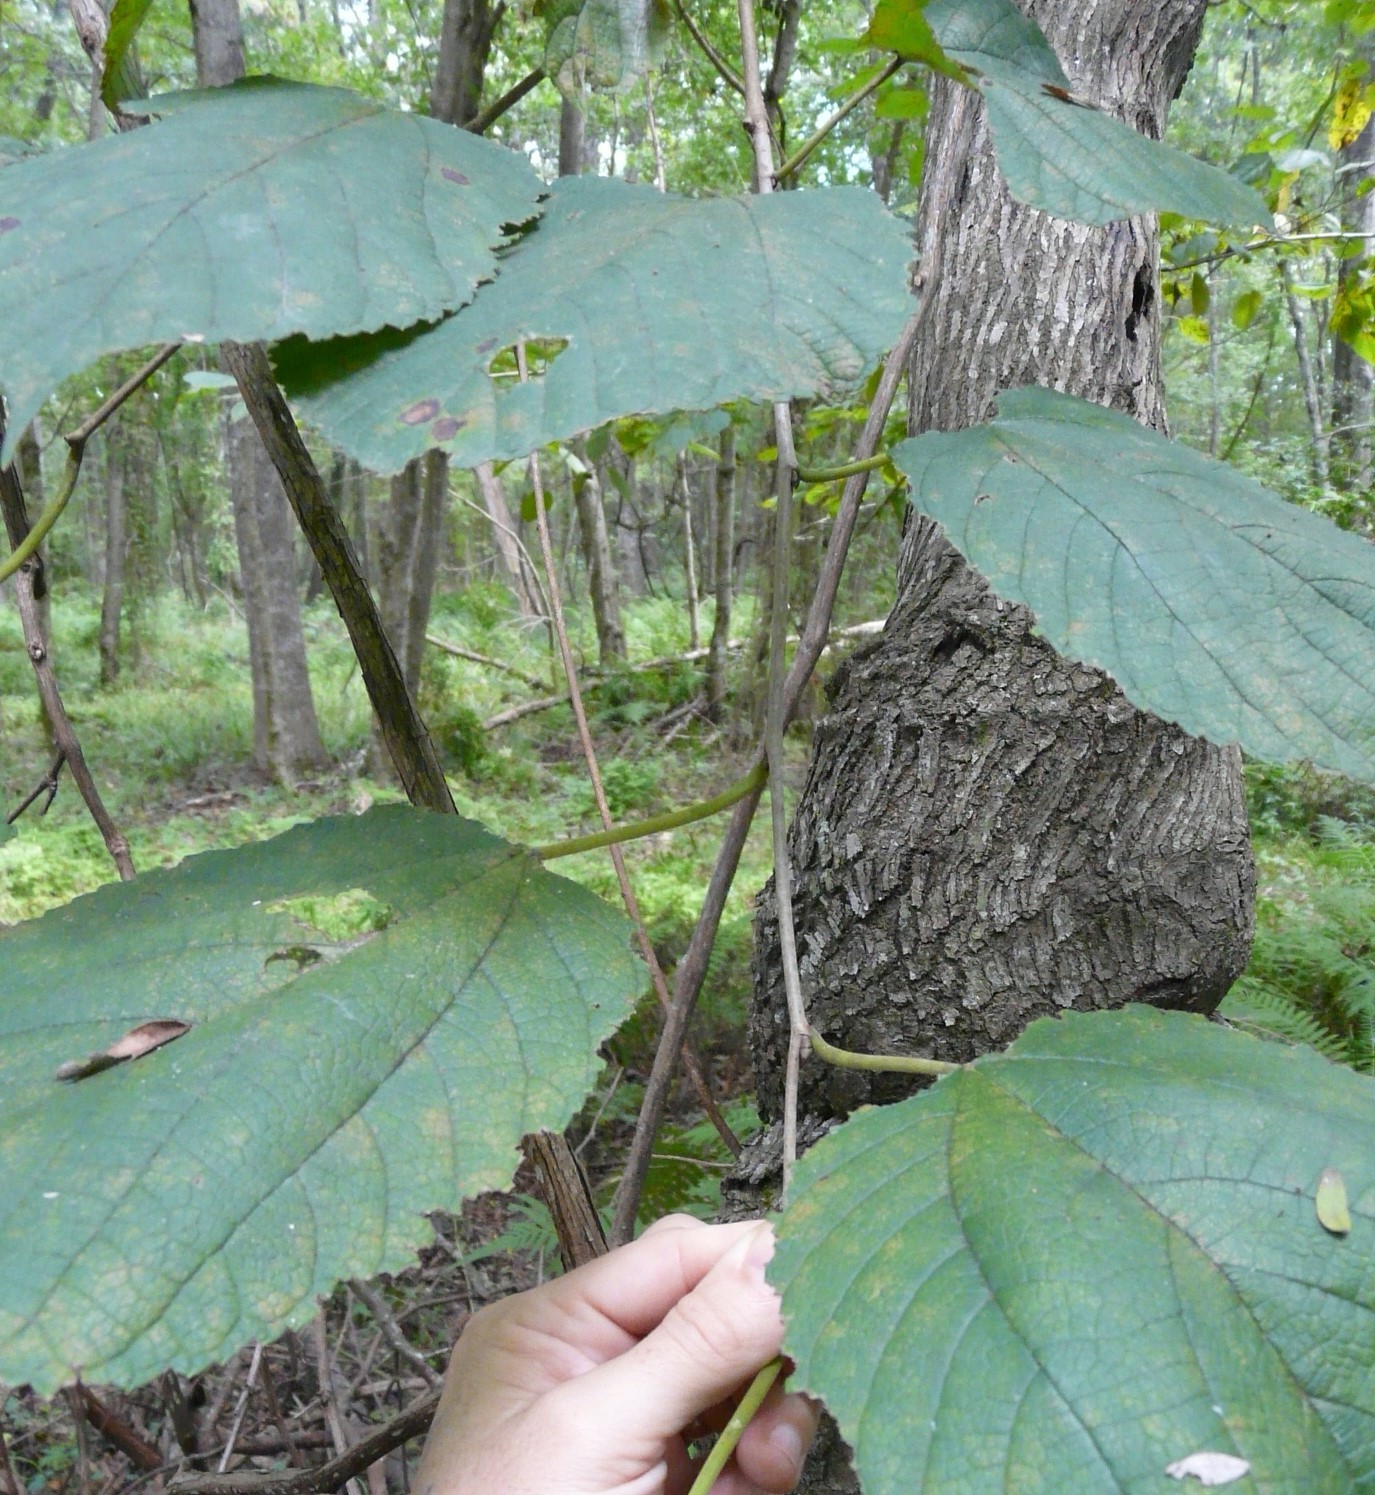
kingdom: Plantae
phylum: Tracheophyta
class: Magnoliopsida
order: Rosales
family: Moraceae
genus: Morus
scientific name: Morus rubra
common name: Red mulberry
